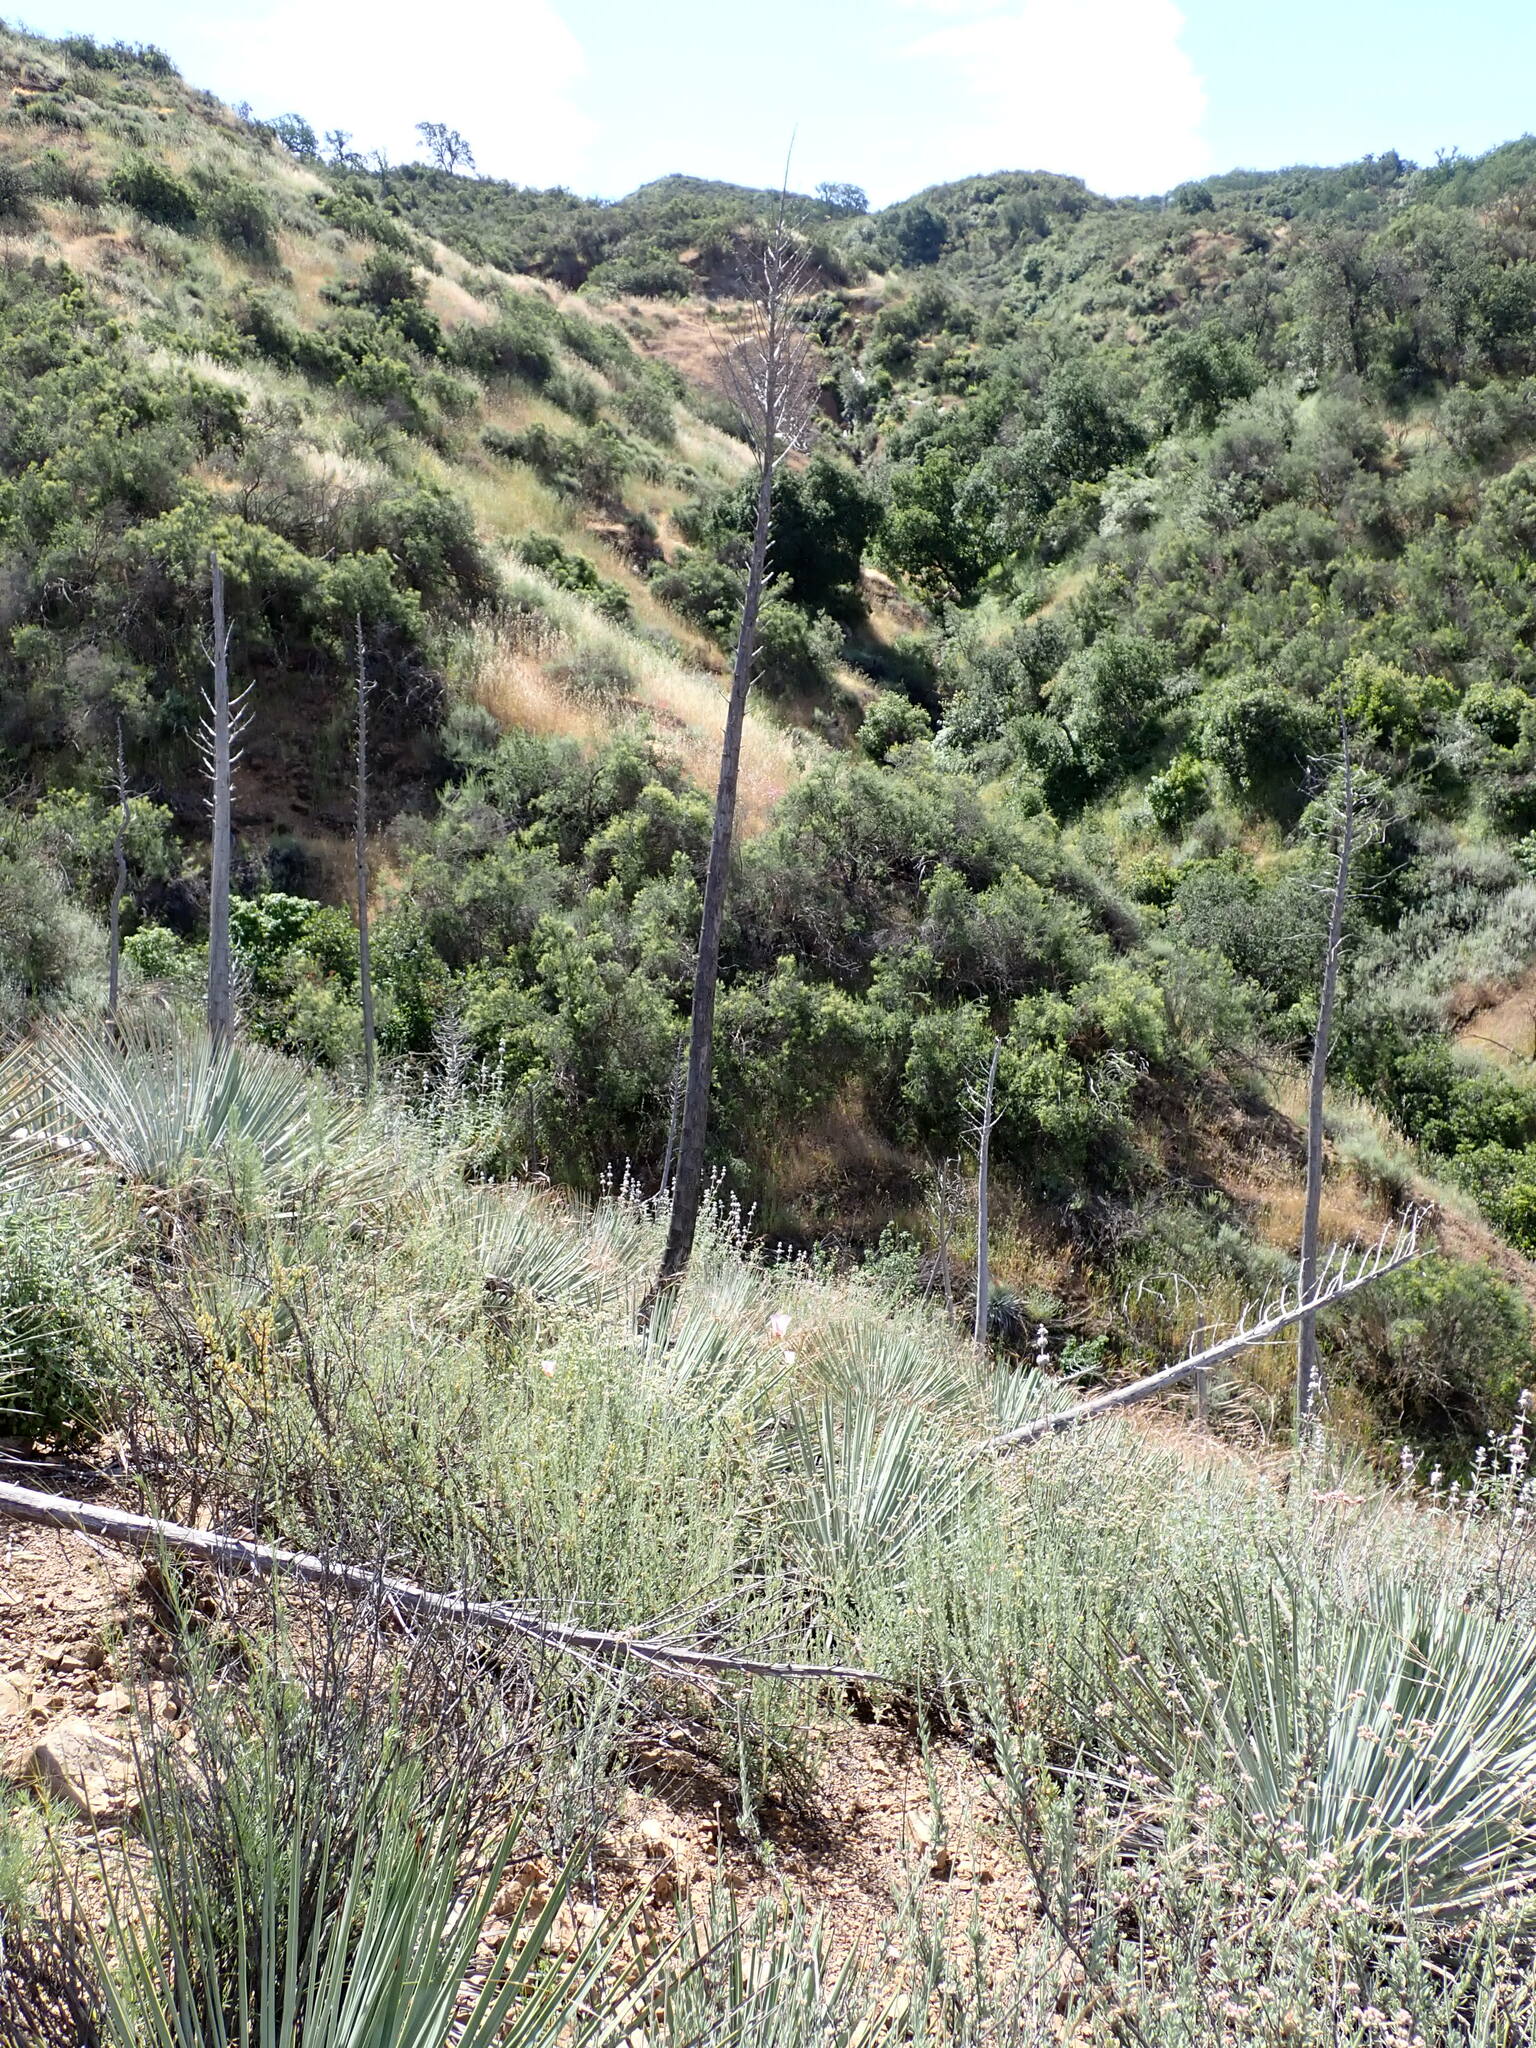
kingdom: Plantae
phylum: Tracheophyta
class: Liliopsida
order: Asparagales
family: Asparagaceae
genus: Hesperoyucca
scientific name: Hesperoyucca whipplei
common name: Our lord's-candle
